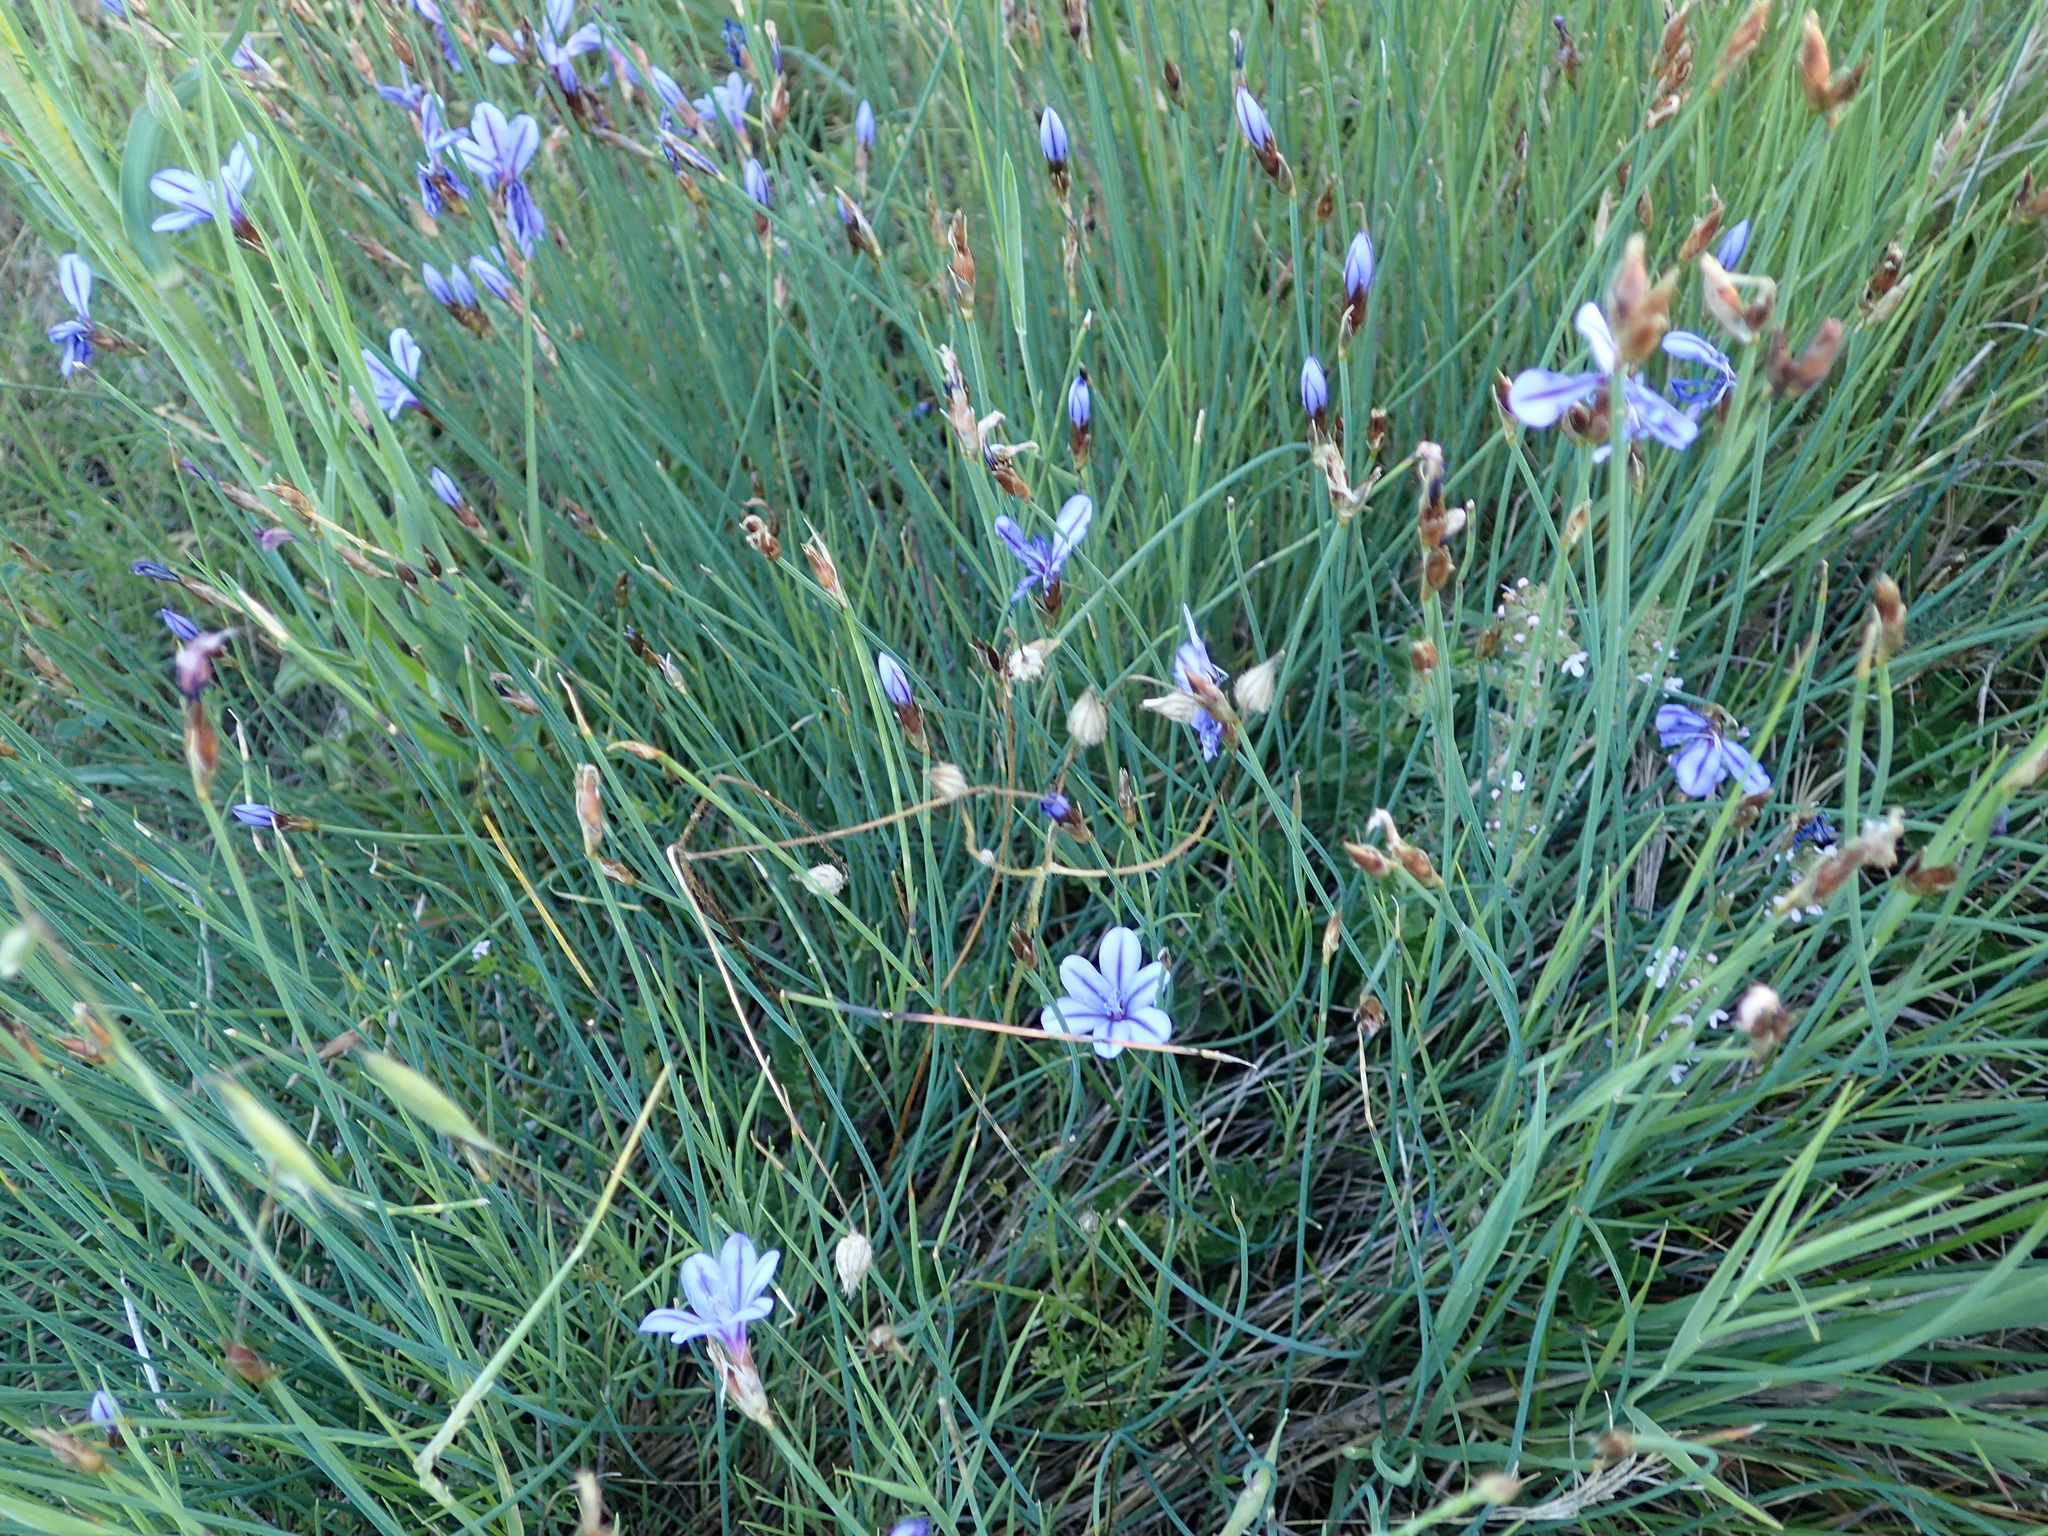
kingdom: Plantae
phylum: Tracheophyta
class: Liliopsida
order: Asparagales
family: Asparagaceae
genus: Aphyllanthes
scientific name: Aphyllanthes monspeliensis
